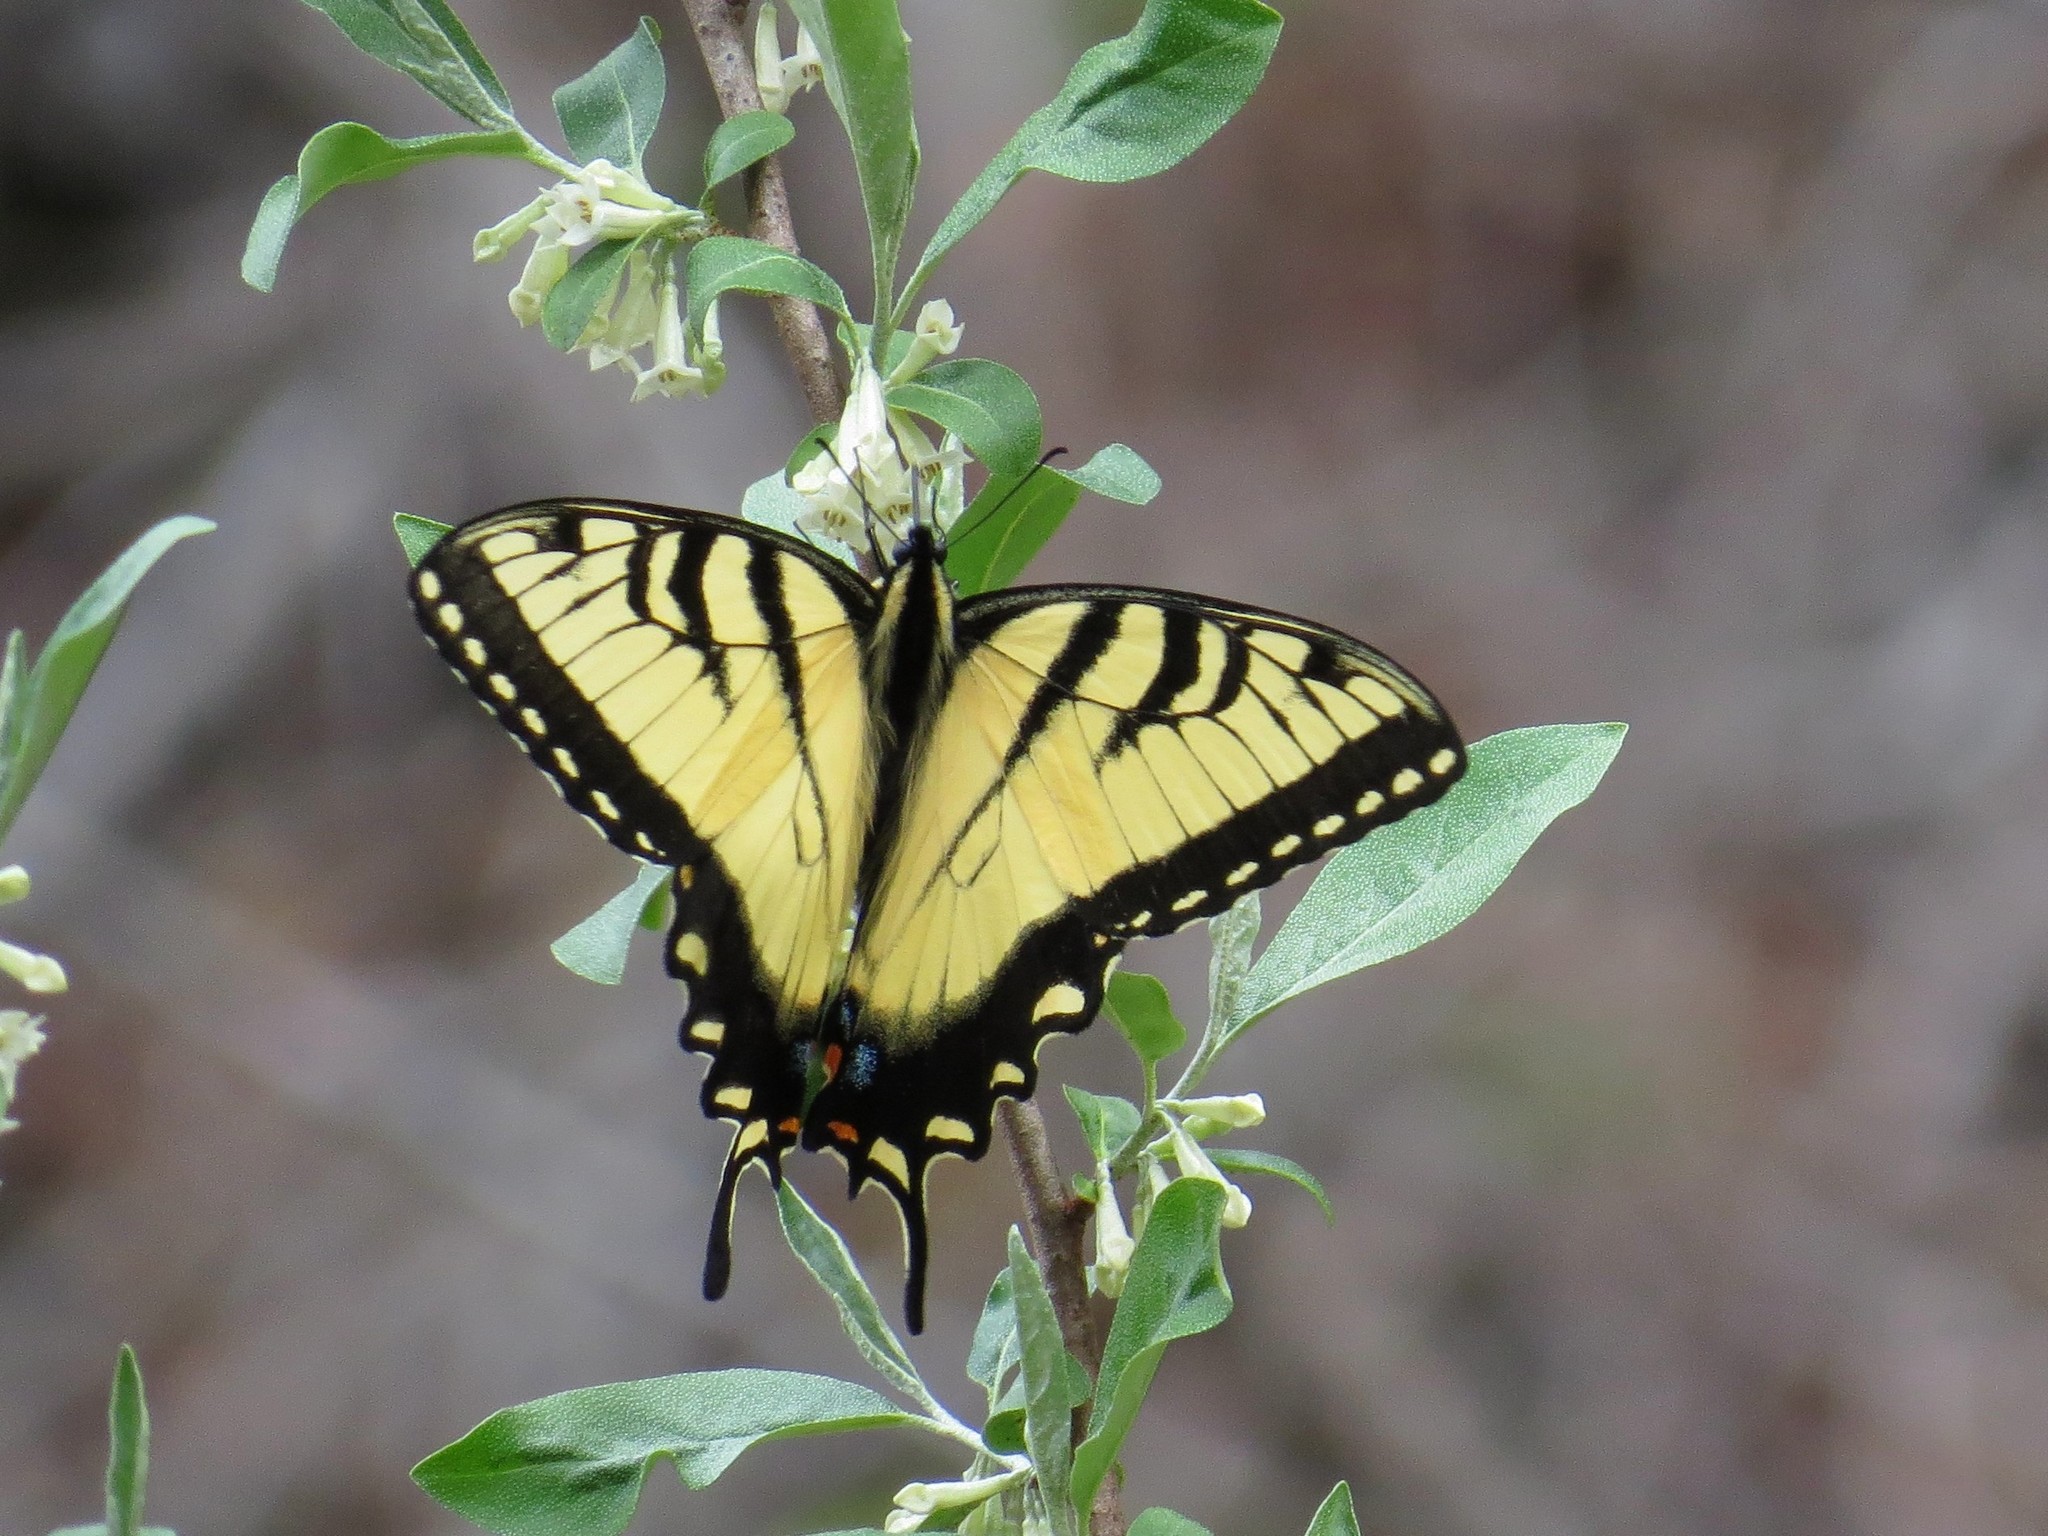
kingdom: Animalia
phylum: Arthropoda
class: Insecta
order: Lepidoptera
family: Papilionidae
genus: Papilio
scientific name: Papilio glaucus
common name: Tiger swallowtail
